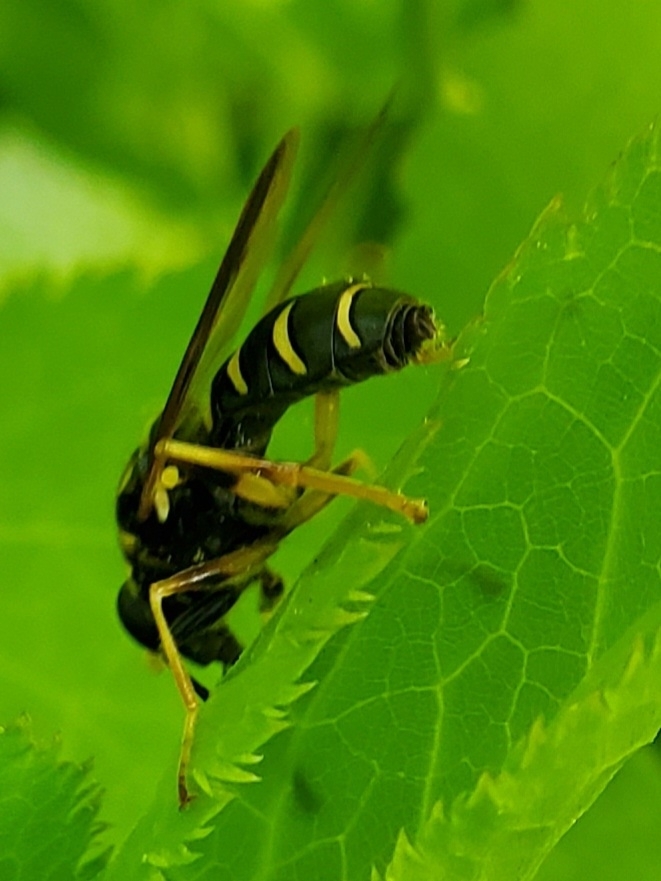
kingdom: Animalia
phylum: Arthropoda
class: Insecta
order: Diptera
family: Syrphidae
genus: Temnostoma
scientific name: Temnostoma balyras
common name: Yellow-haired falsehorn
